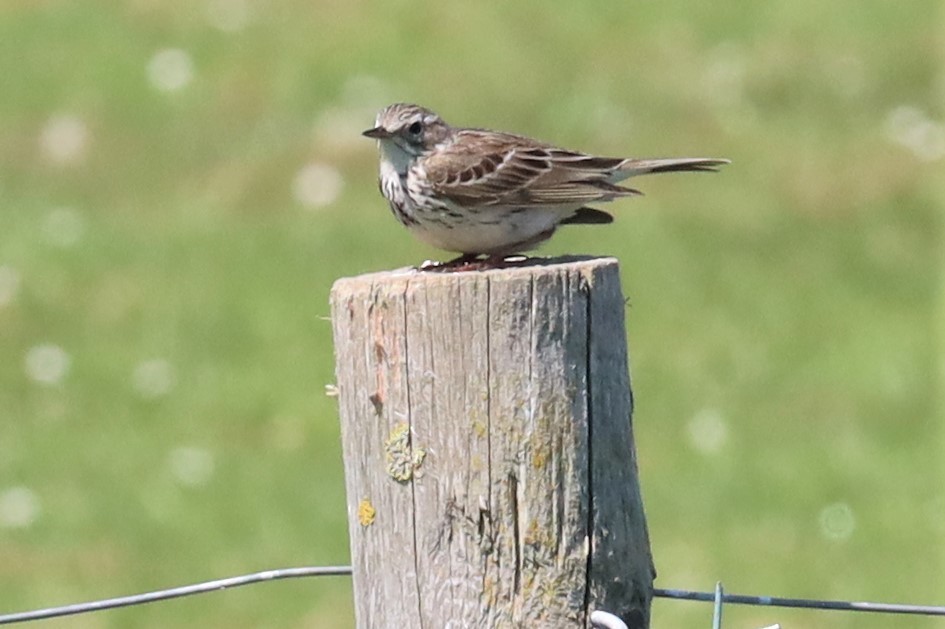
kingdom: Animalia
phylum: Chordata
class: Aves
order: Passeriformes
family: Motacillidae
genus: Anthus
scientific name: Anthus pratensis
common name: Meadow pipit
